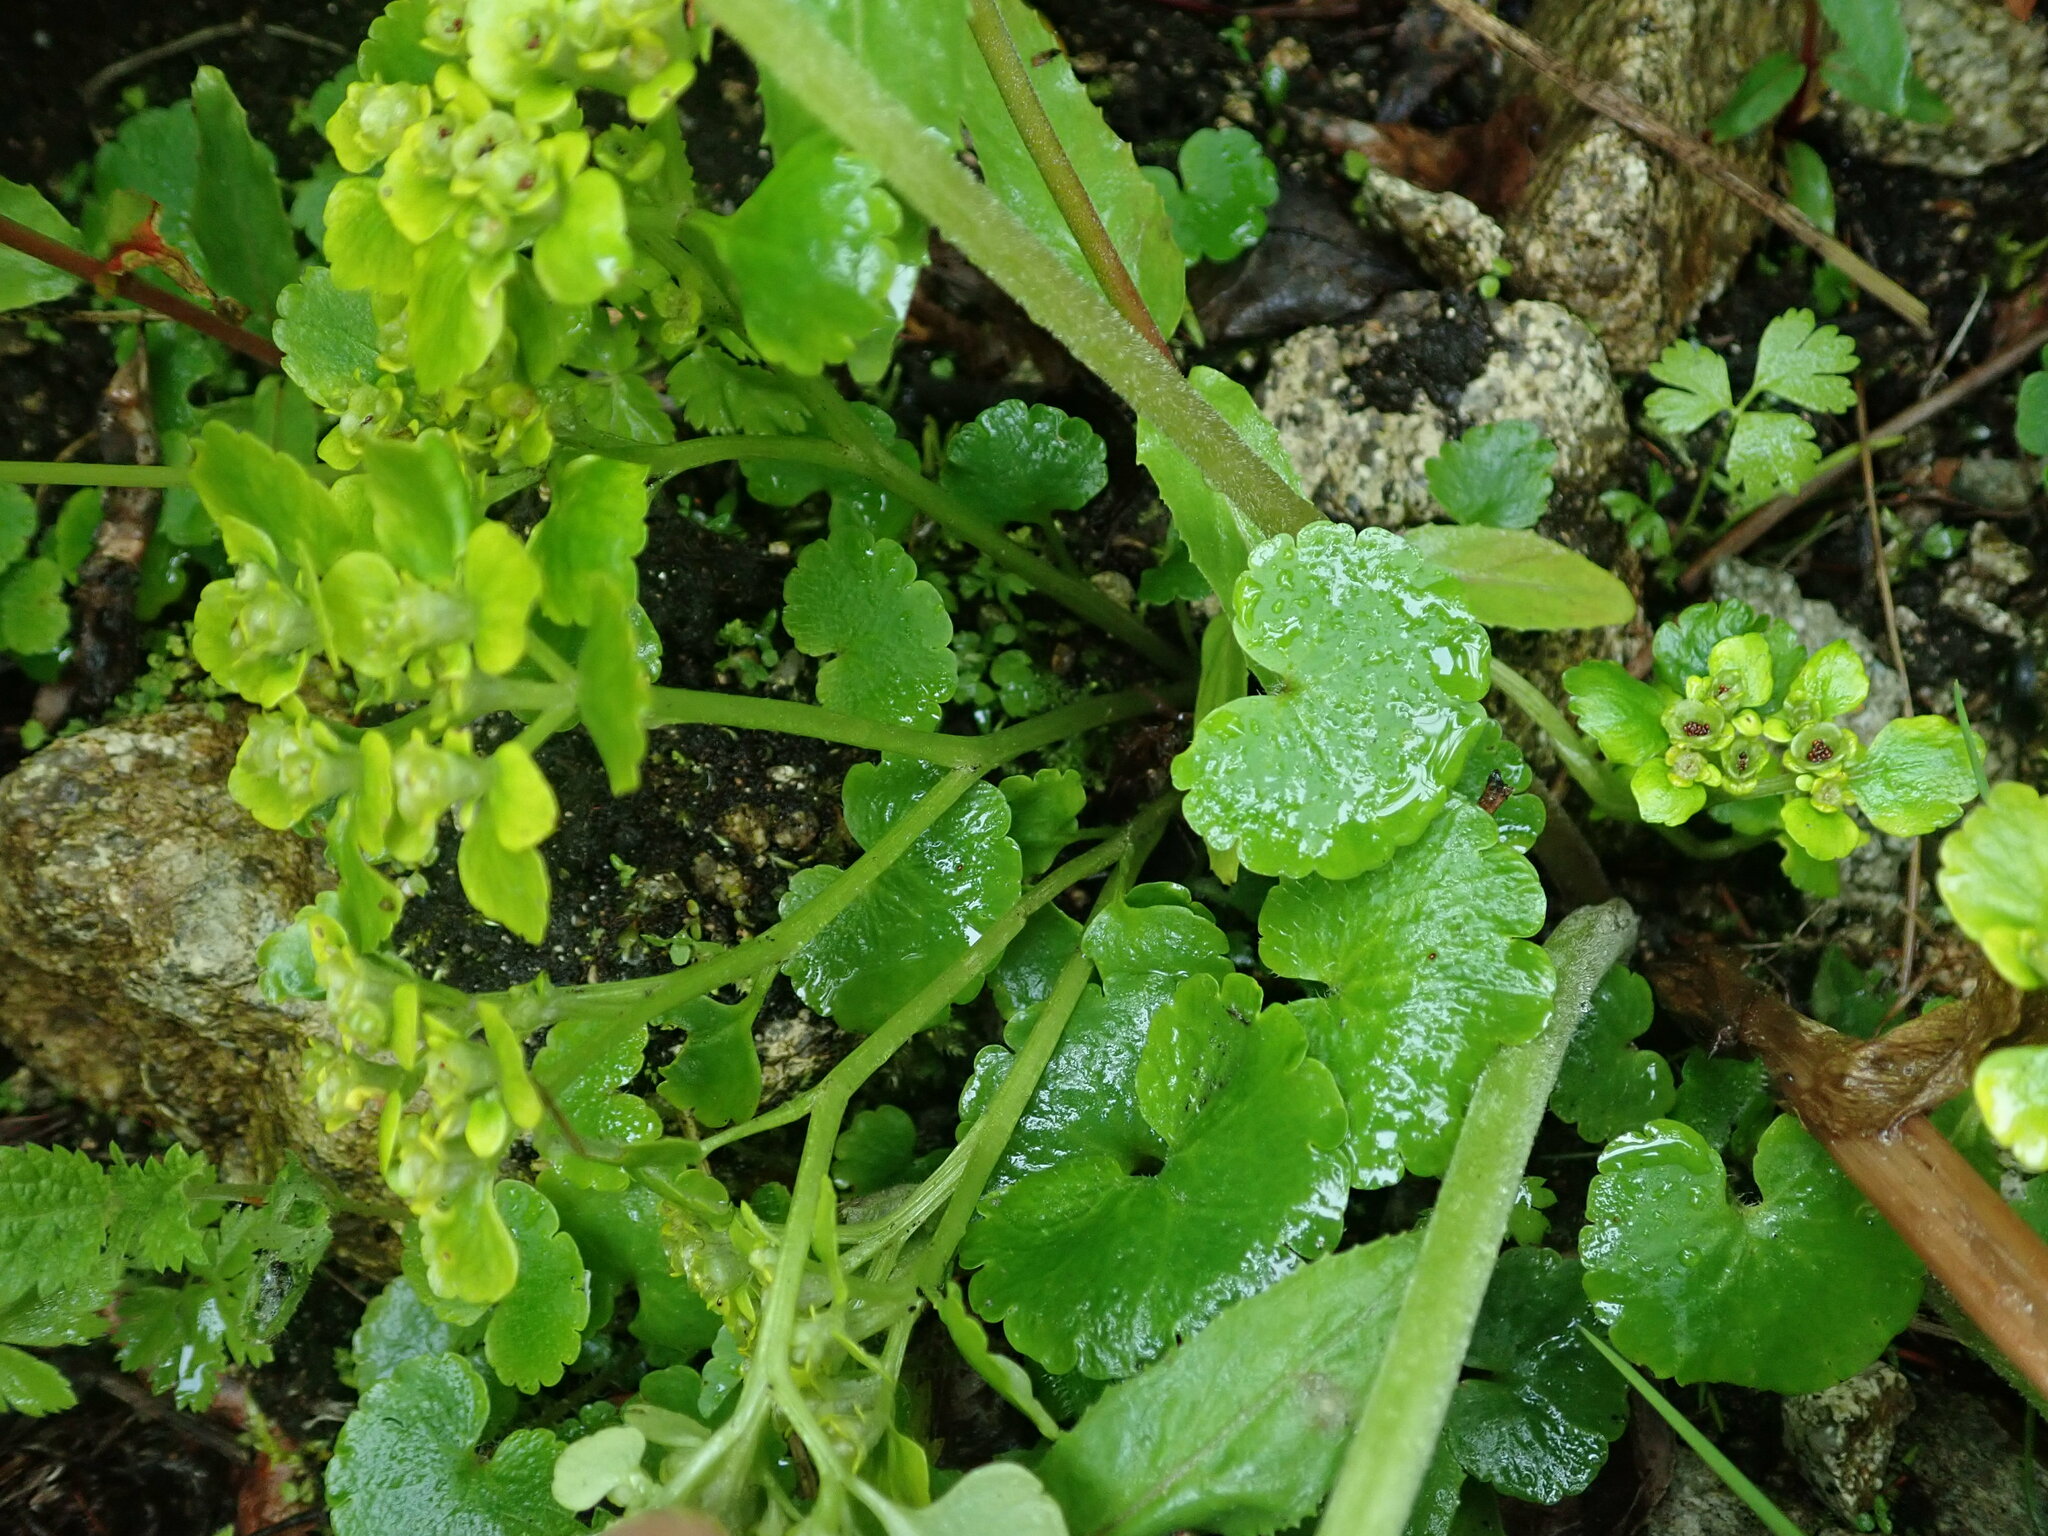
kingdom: Plantae
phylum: Tracheophyta
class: Magnoliopsida
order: Saxifragales
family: Saxifragaceae
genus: Chrysosplenium
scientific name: Chrysosplenium alternifolium
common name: Alternate-leaved golden-saxifrage
